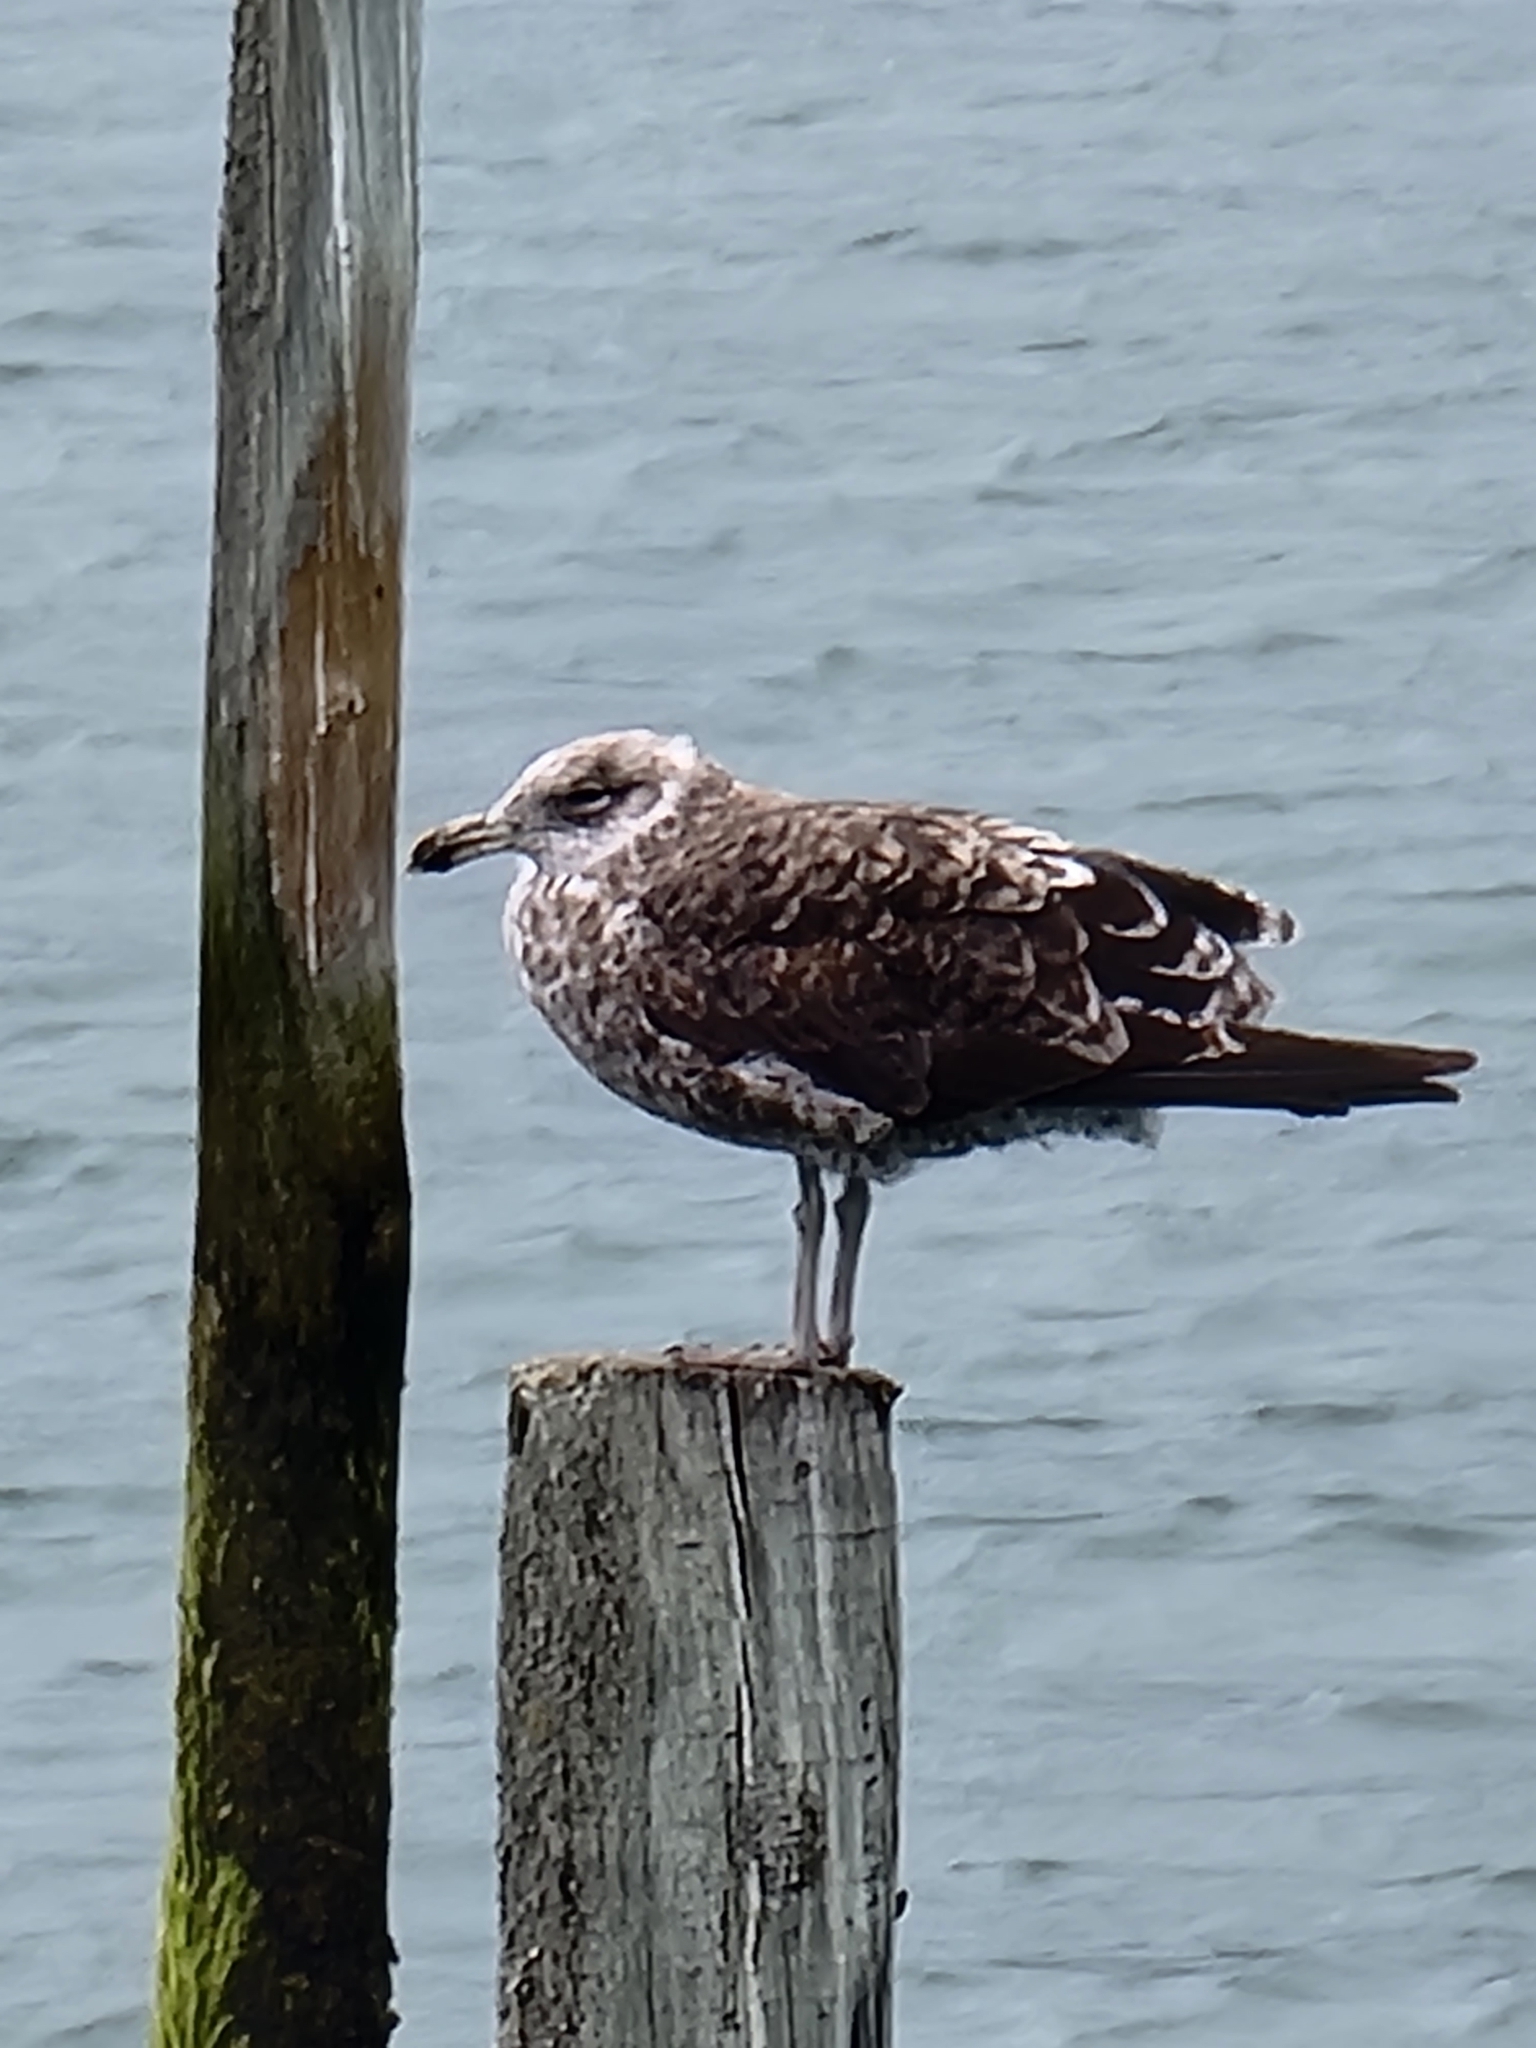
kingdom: Animalia
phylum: Chordata
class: Aves
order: Charadriiformes
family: Laridae
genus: Larus
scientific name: Larus dominicanus
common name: Kelp gull
